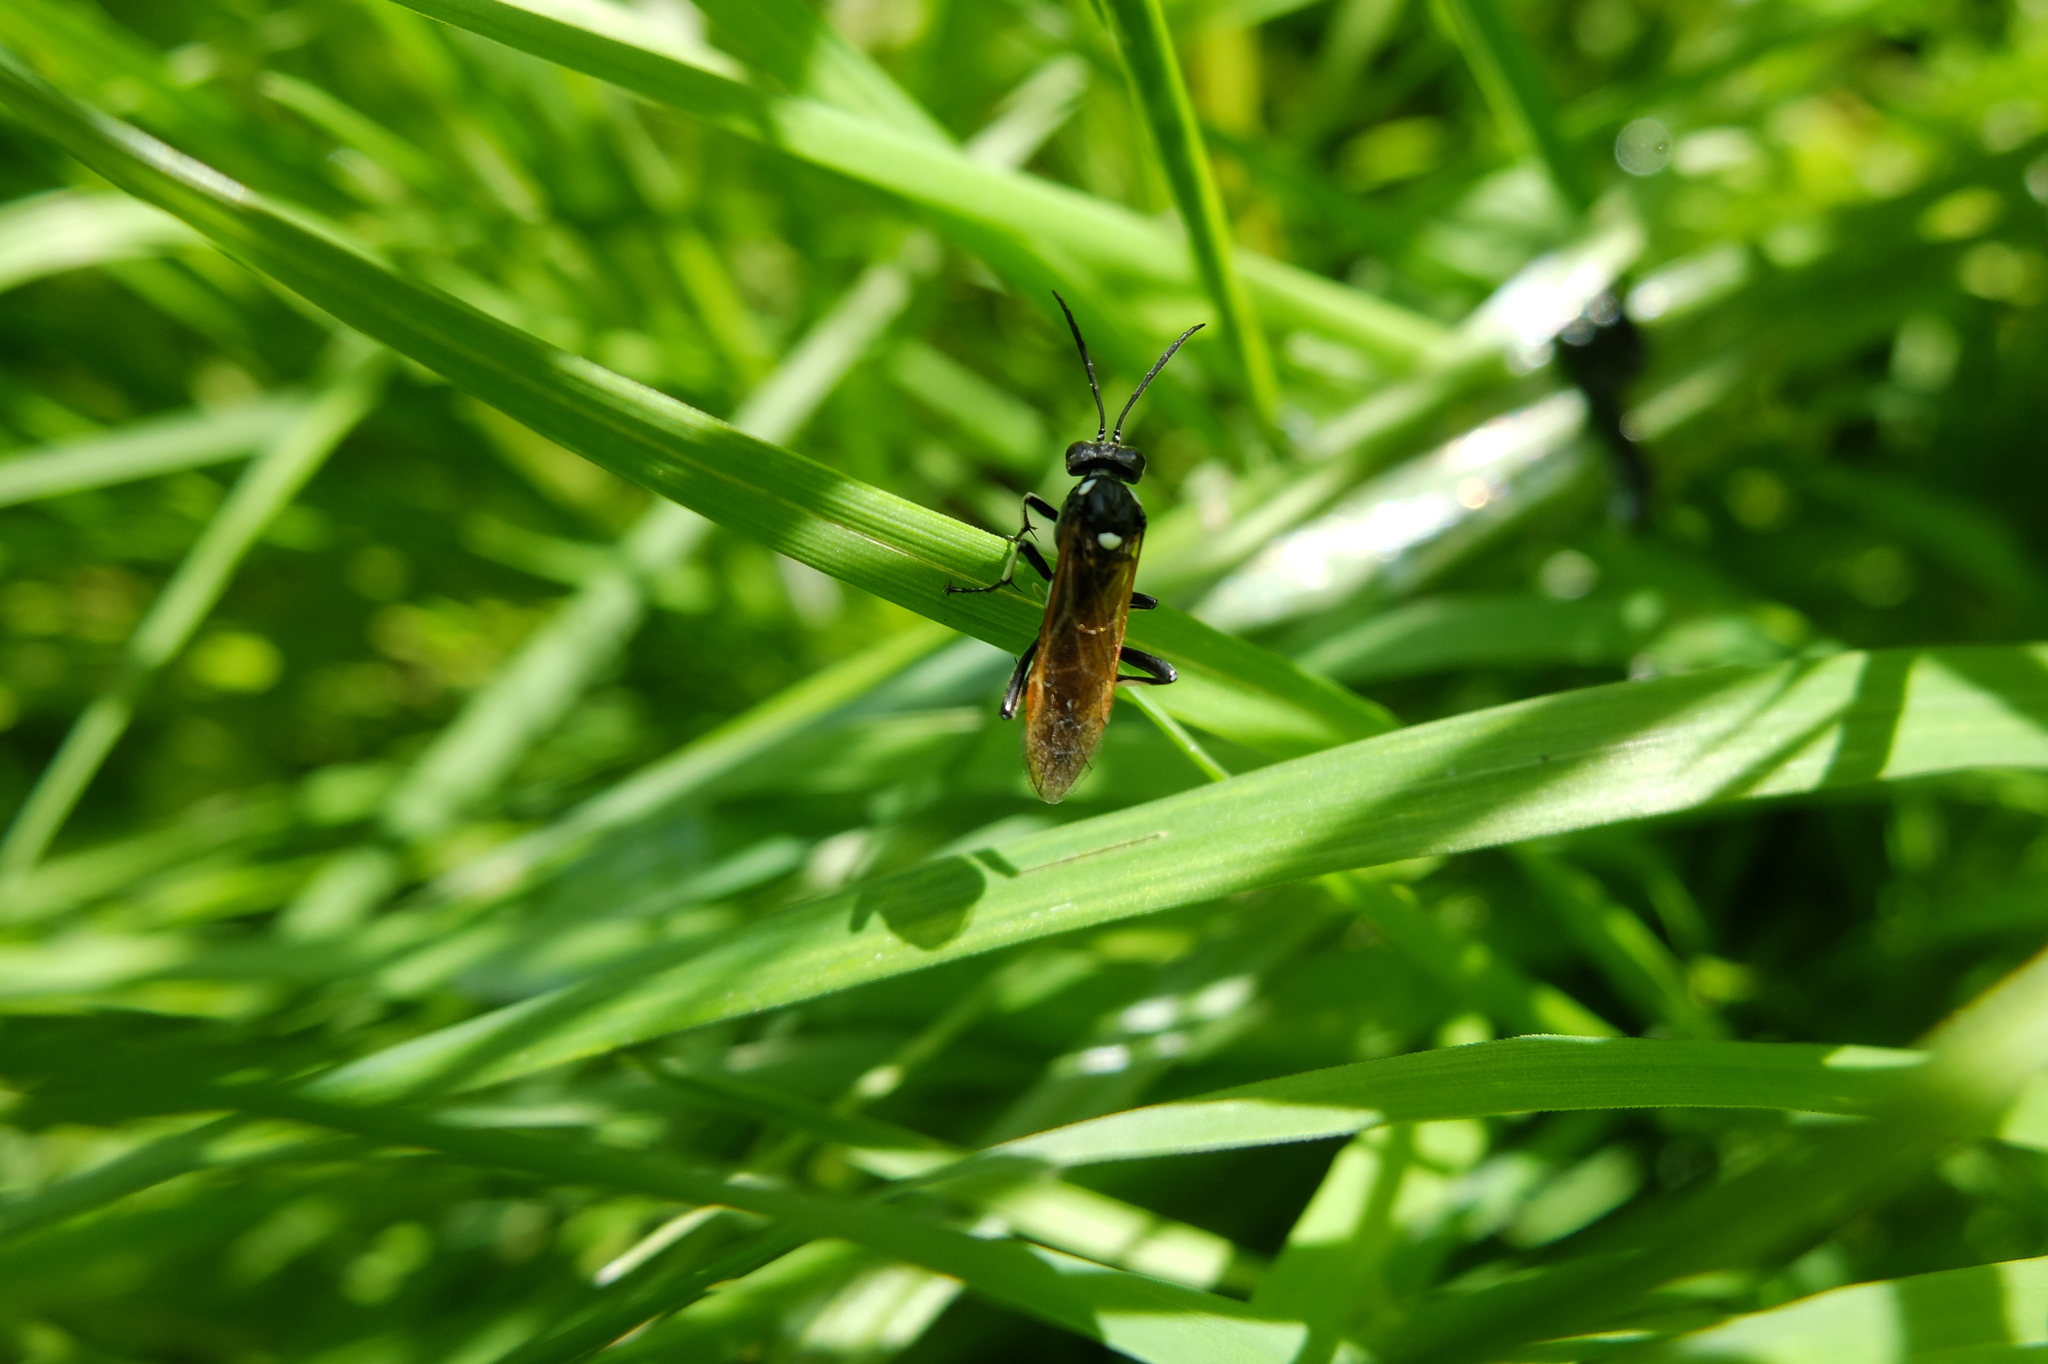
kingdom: Animalia
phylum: Arthropoda
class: Insecta
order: Hymenoptera
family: Tenthredinidae
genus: Macrophya
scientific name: Macrophya duodecimpunctata
